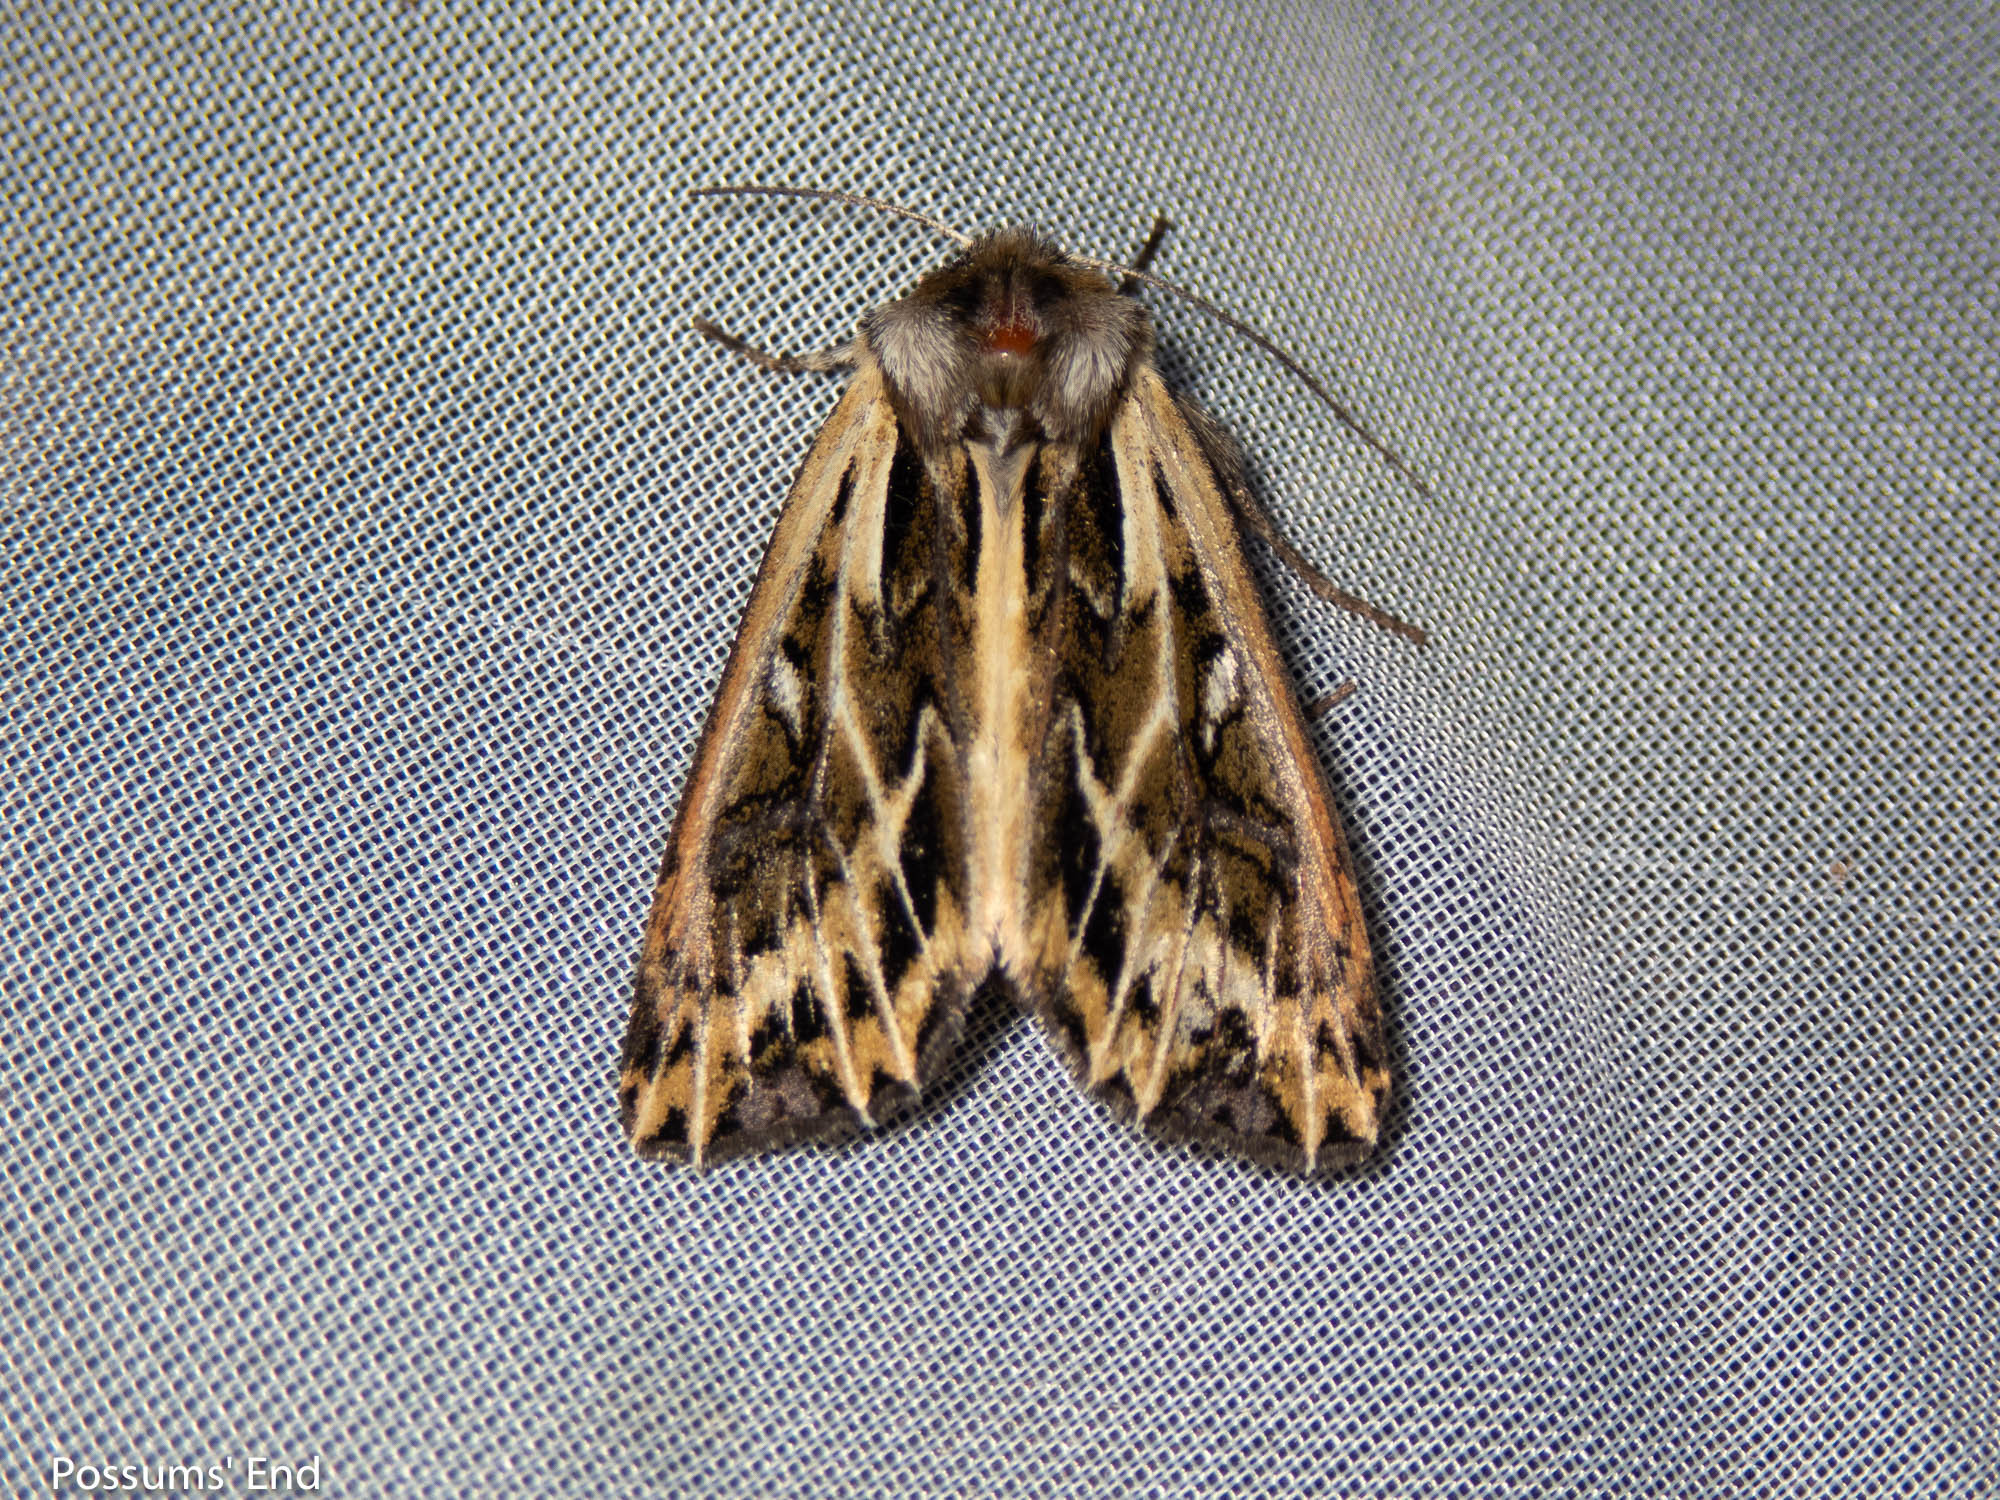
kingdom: Animalia
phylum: Arthropoda
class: Insecta
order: Lepidoptera
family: Noctuidae
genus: Ichneutica
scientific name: Ichneutica
